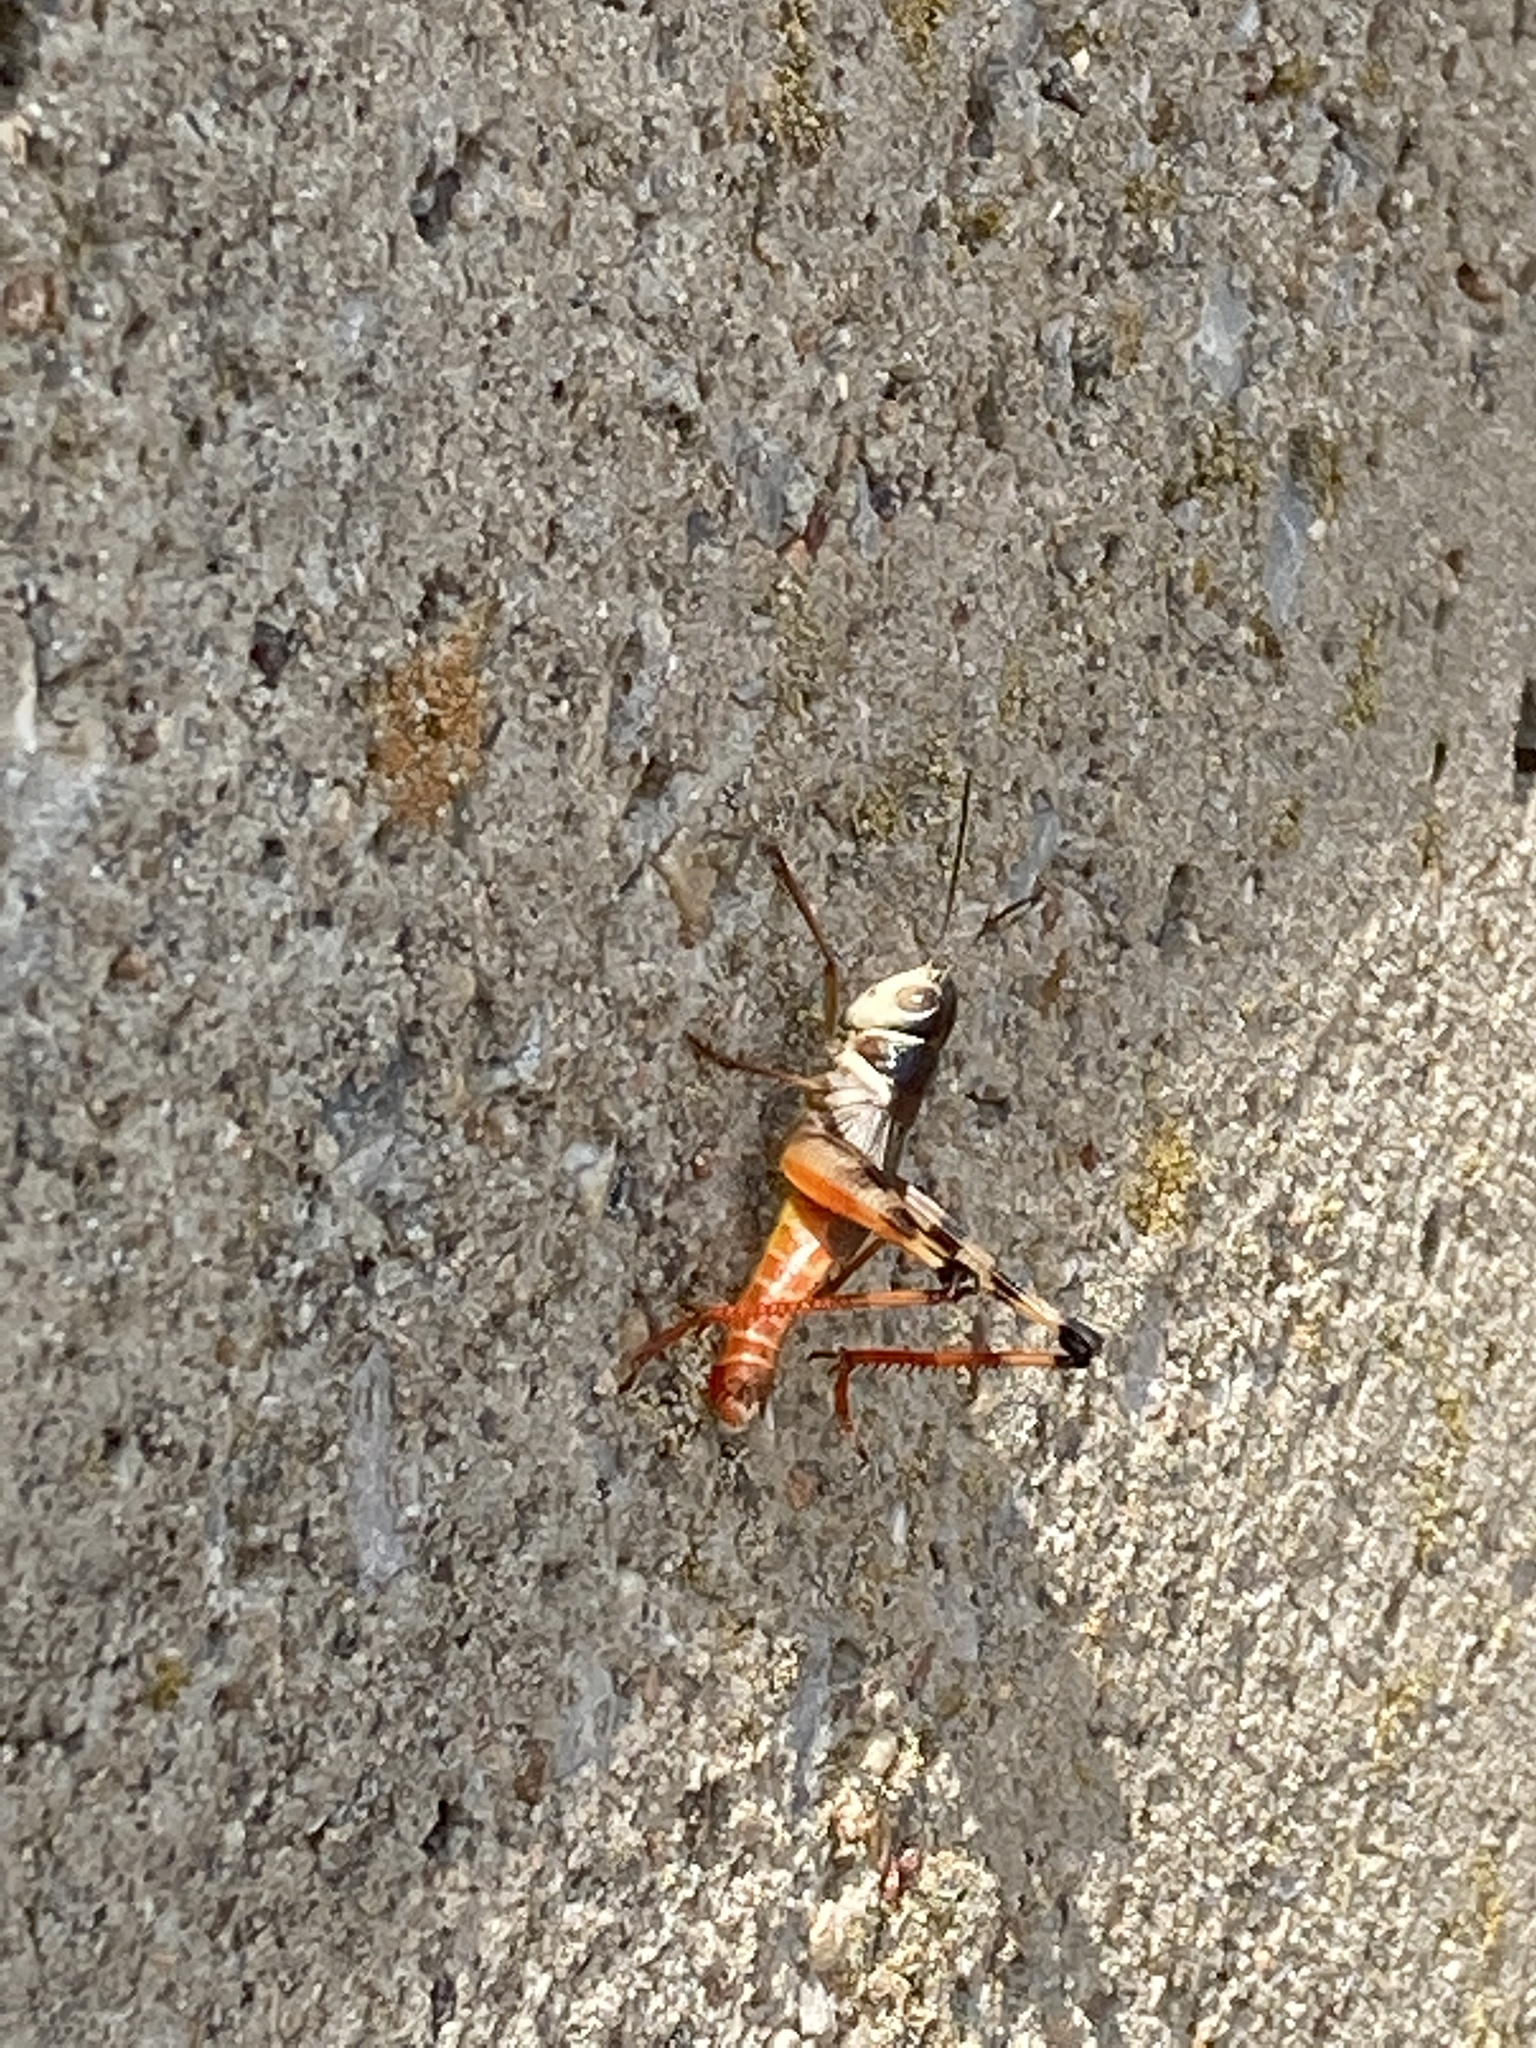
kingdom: Animalia
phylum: Arthropoda
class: Insecta
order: Orthoptera
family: Acrididae
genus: Boopedon
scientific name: Boopedon auriventris
